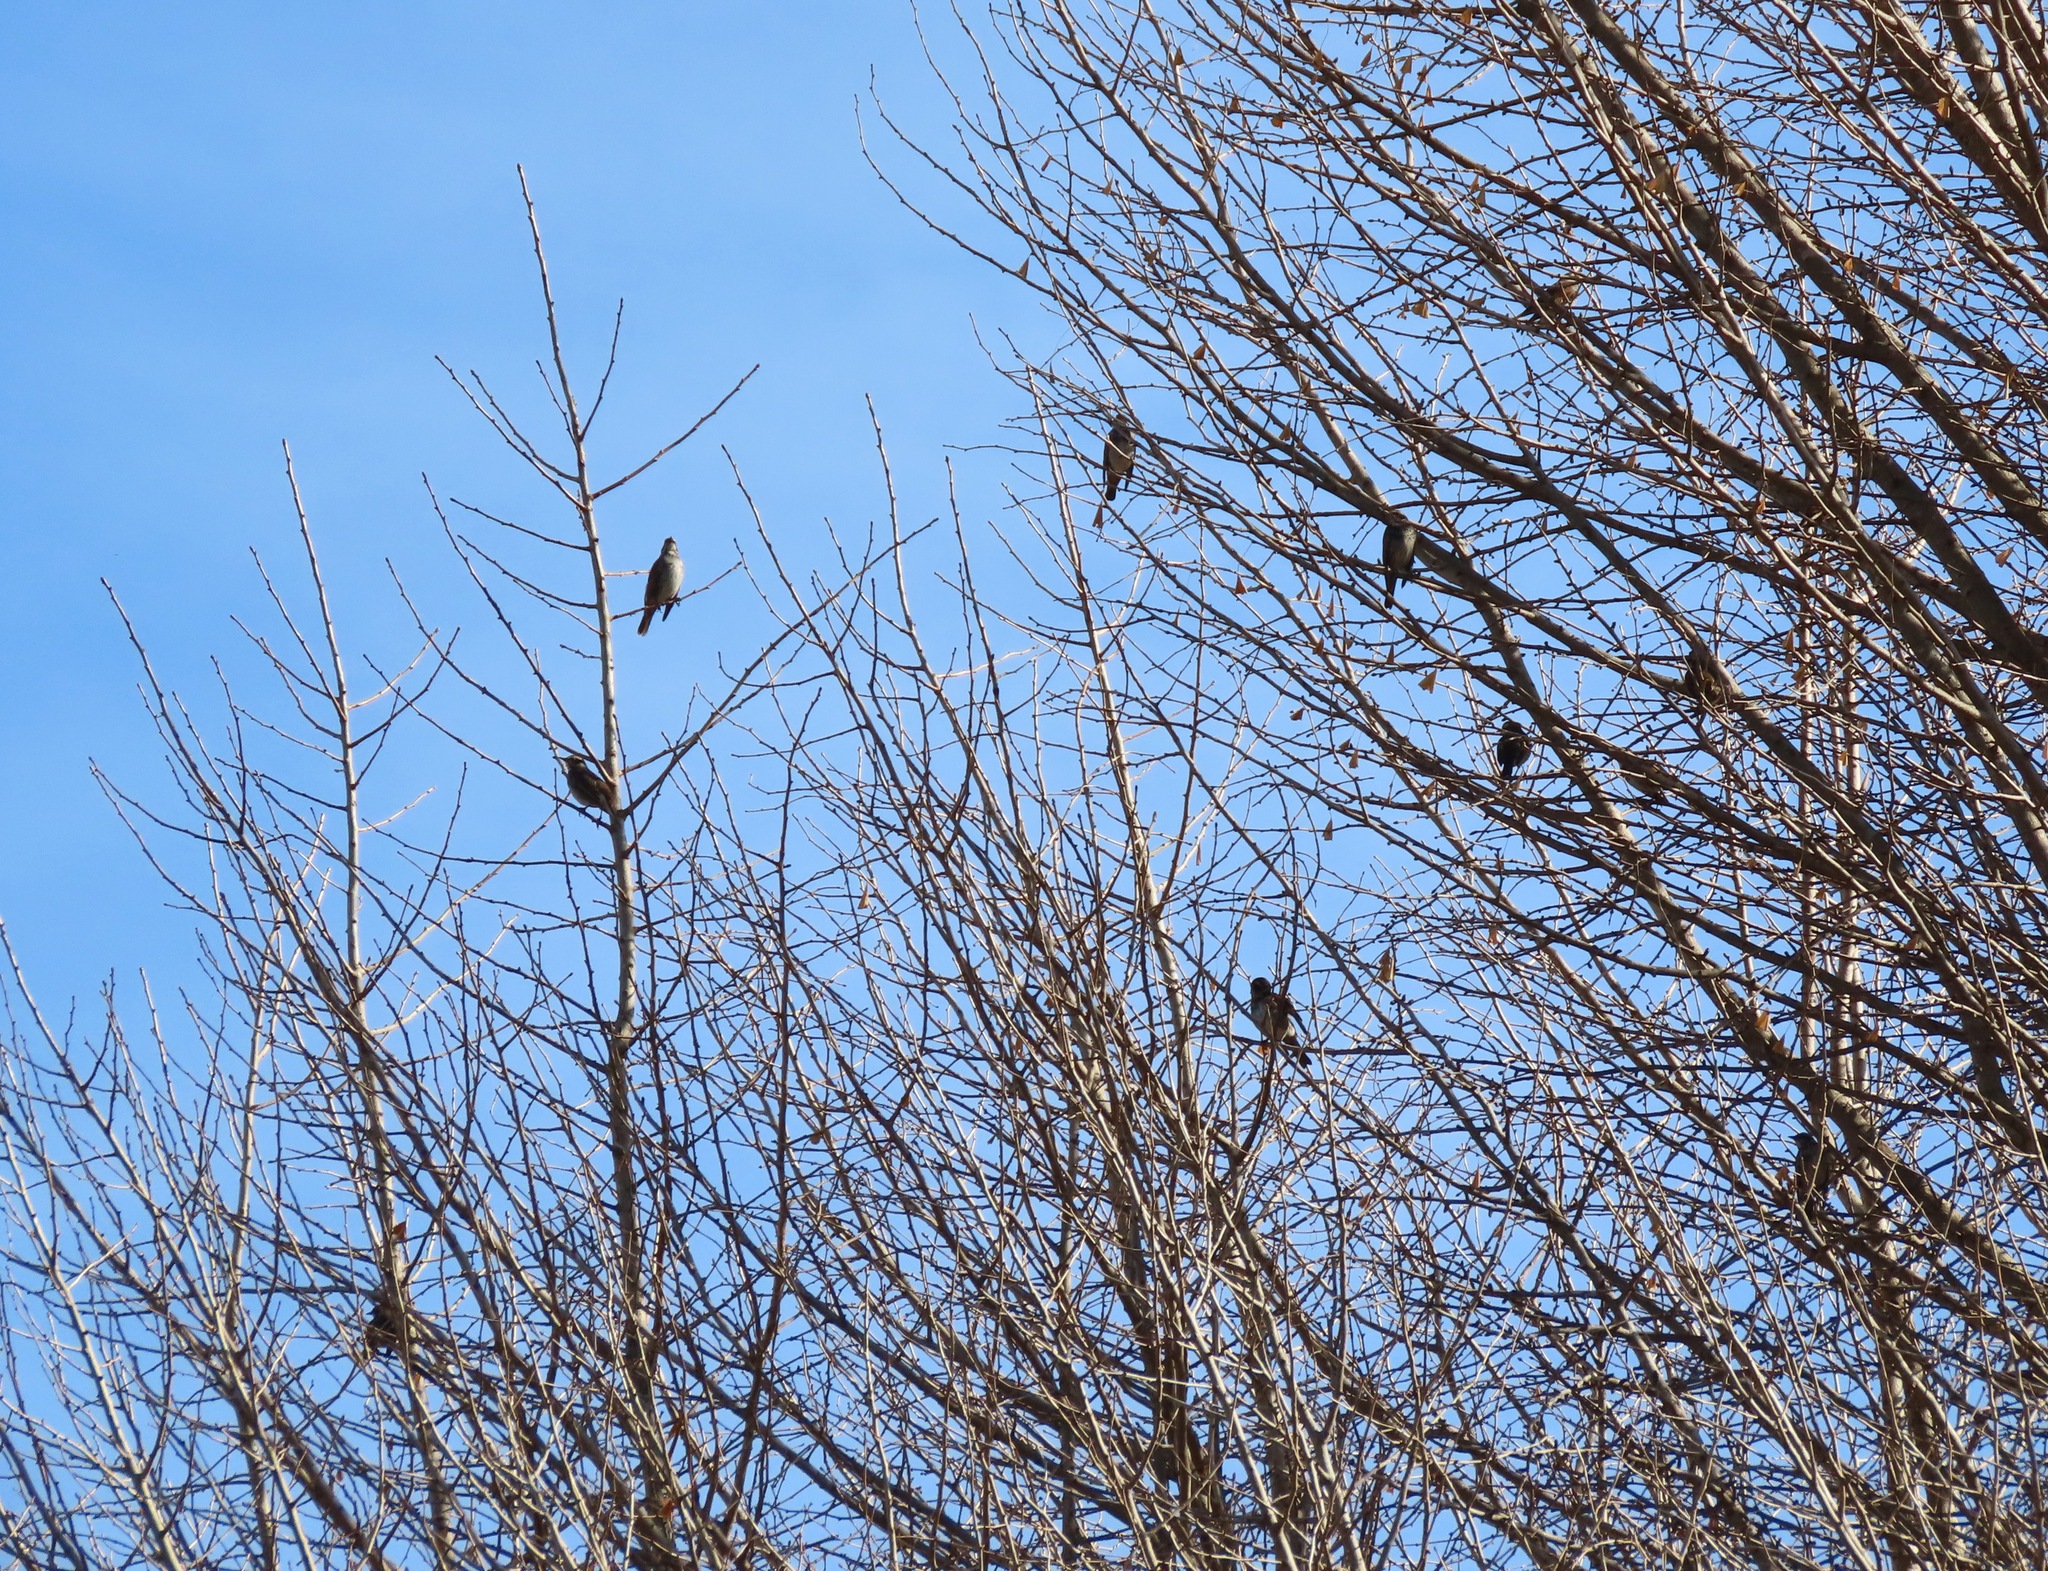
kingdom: Animalia
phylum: Chordata
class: Aves
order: Passeriformes
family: Turdidae
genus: Turdus
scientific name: Turdus eunomus
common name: Dusky thrush
